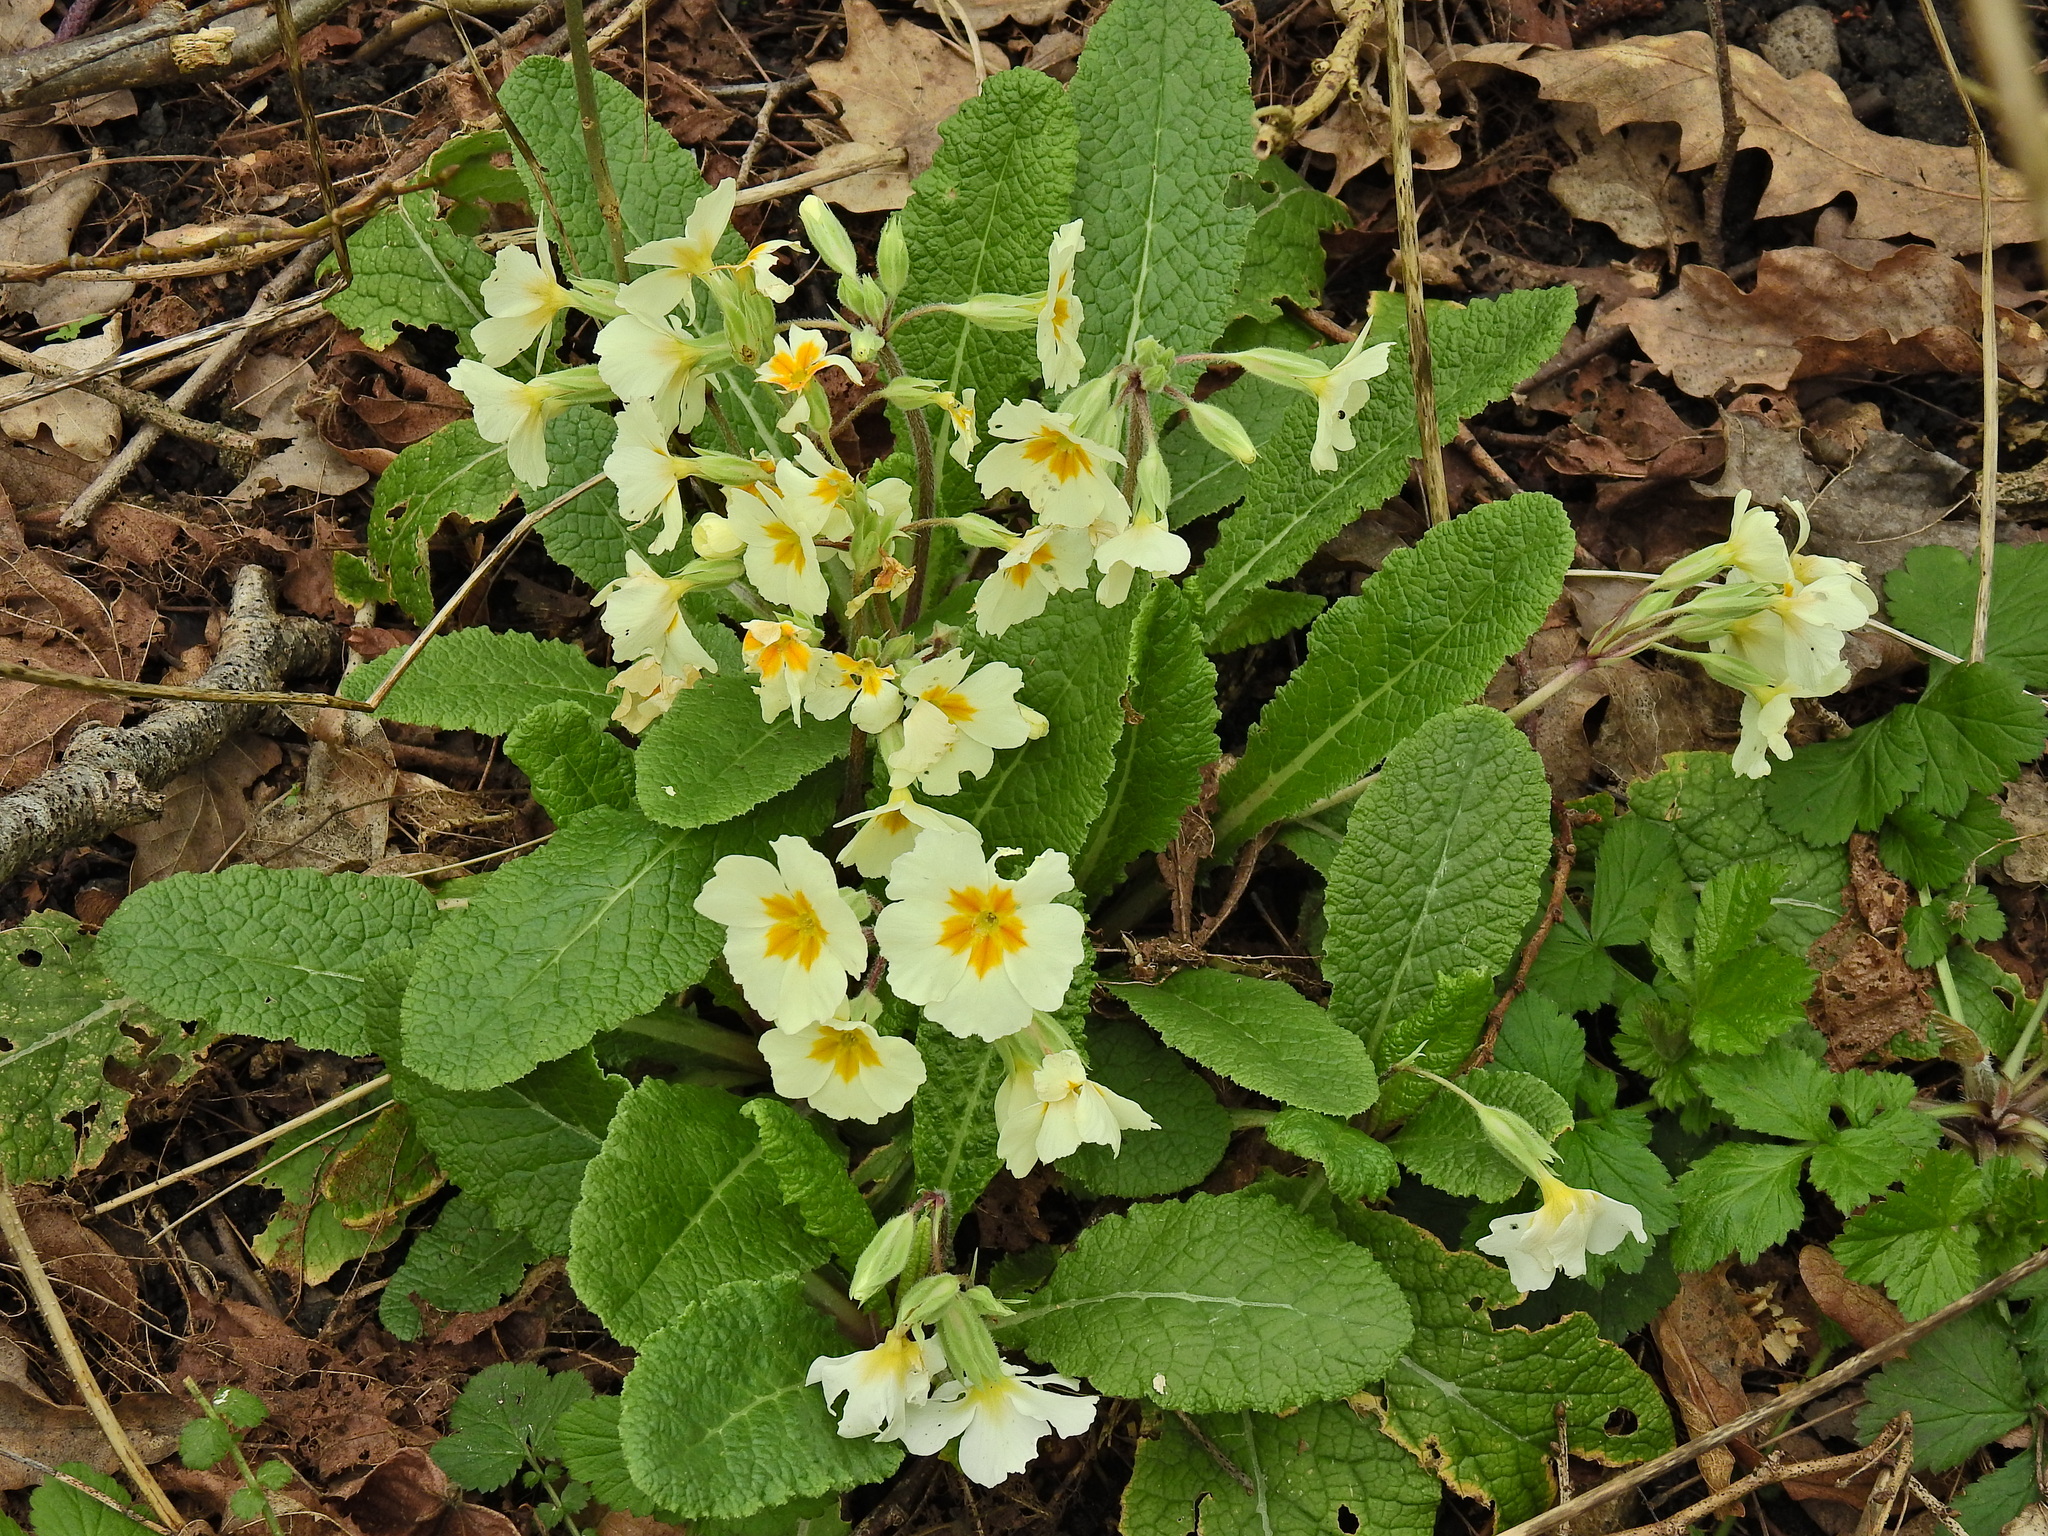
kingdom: Plantae
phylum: Tracheophyta
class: Magnoliopsida
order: Ericales
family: Primulaceae
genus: Primula
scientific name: Primula vulgaris
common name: Primrose
